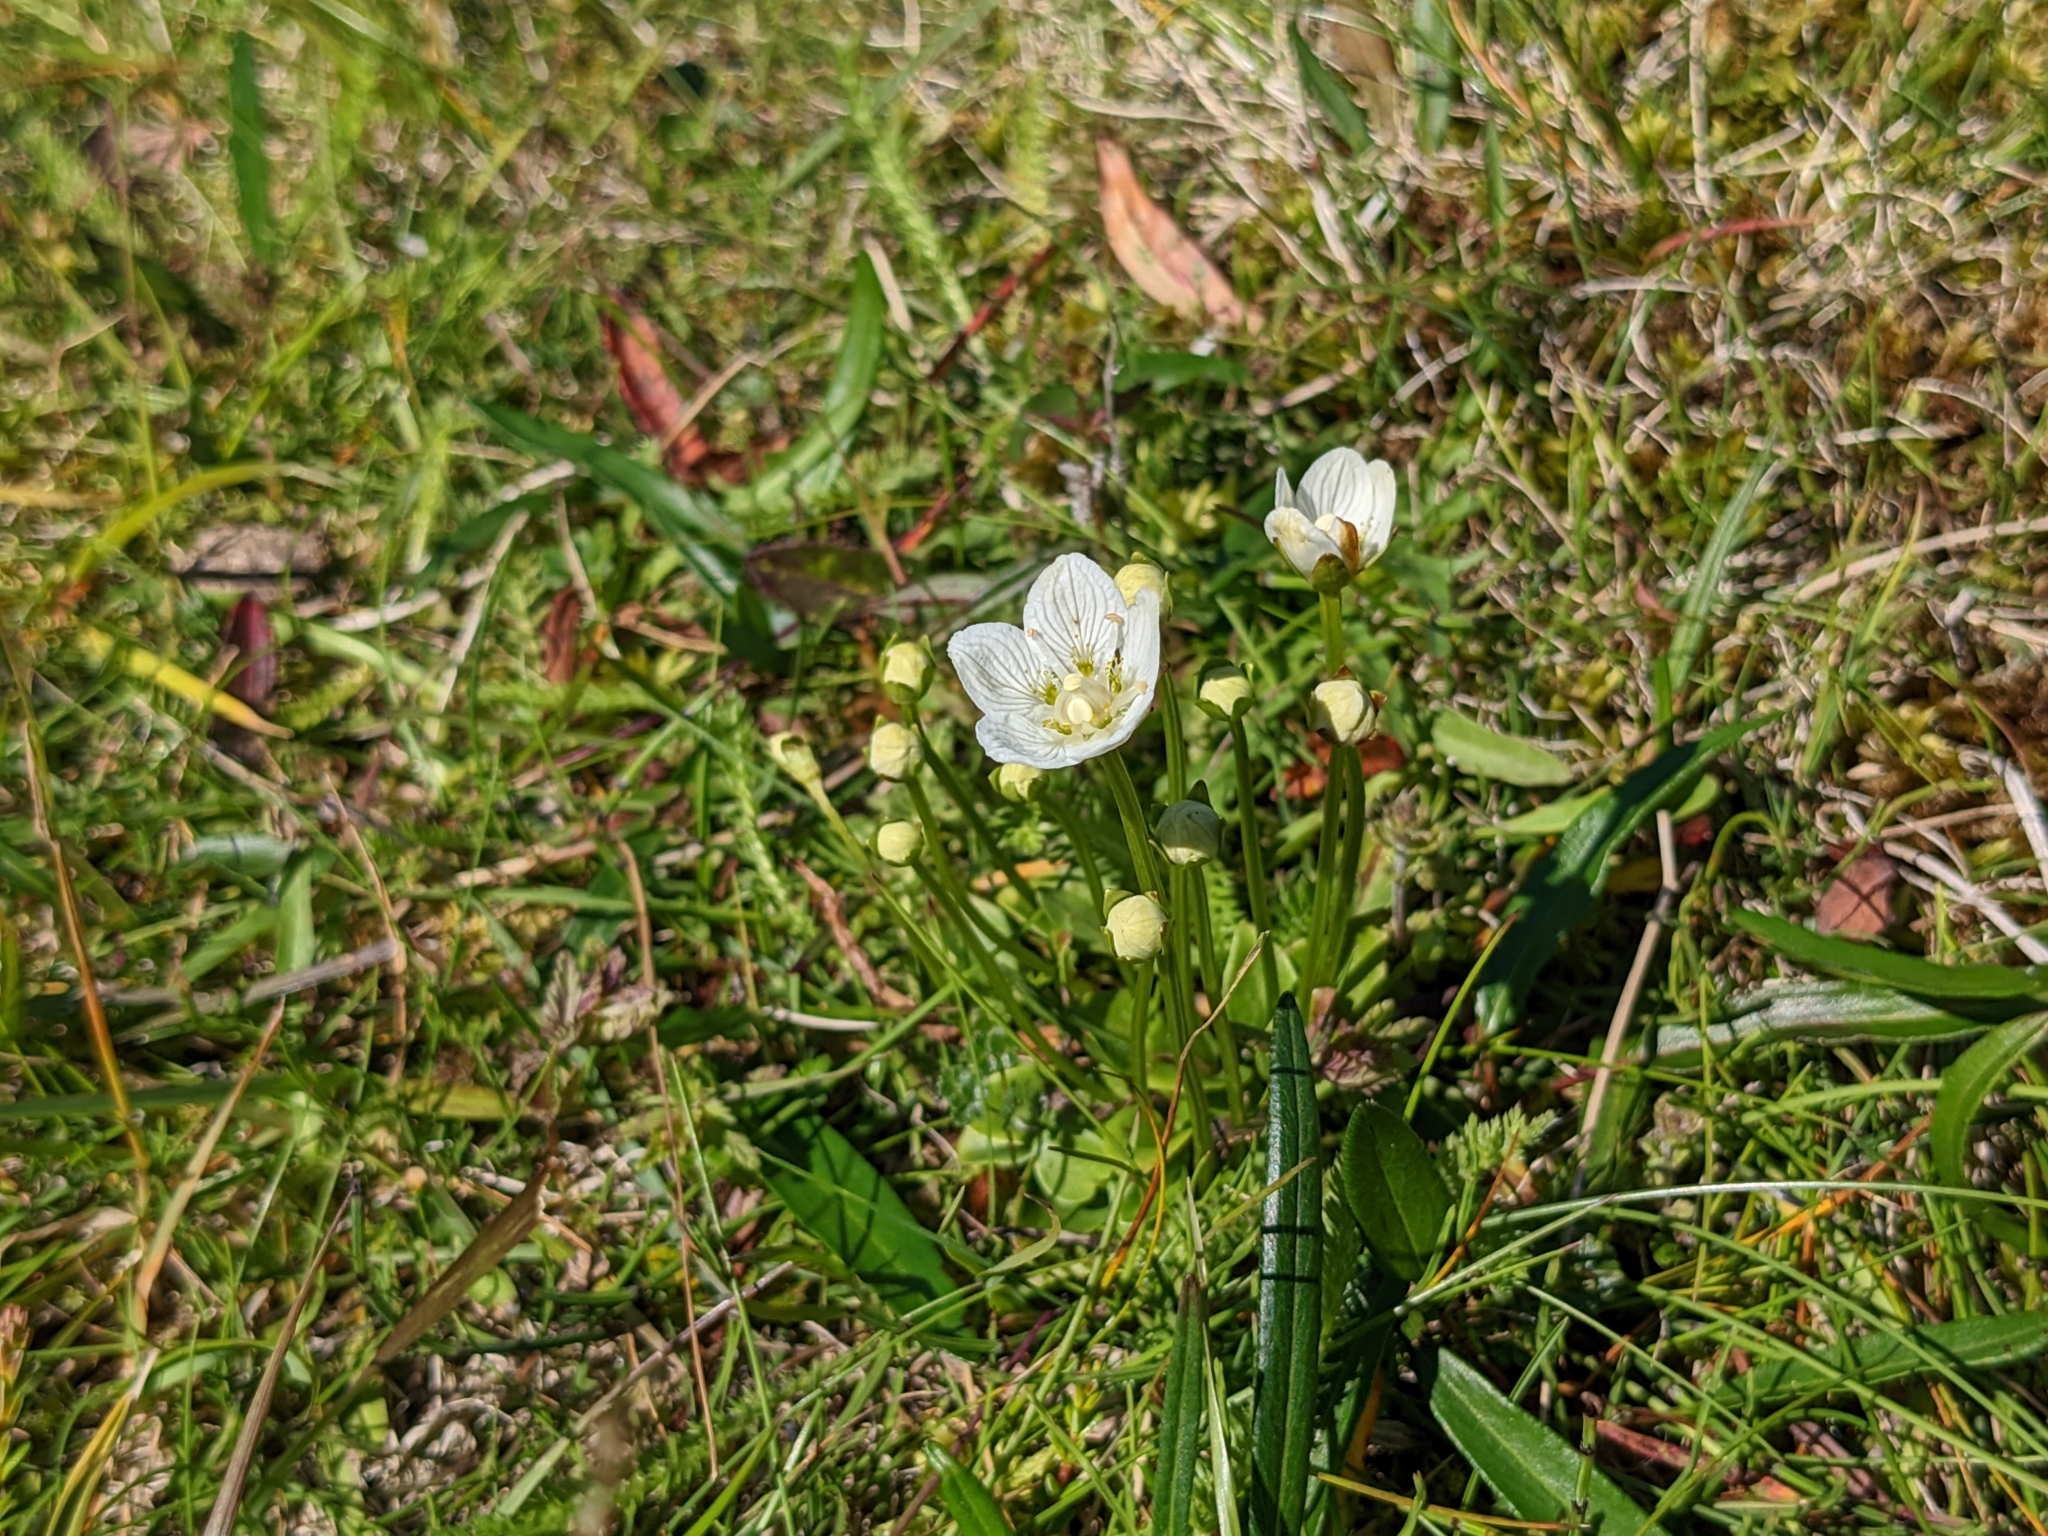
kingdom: Plantae
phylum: Tracheophyta
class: Magnoliopsida
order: Celastrales
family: Parnassiaceae
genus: Parnassia
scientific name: Parnassia palustris
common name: Grass-of-parnassus
